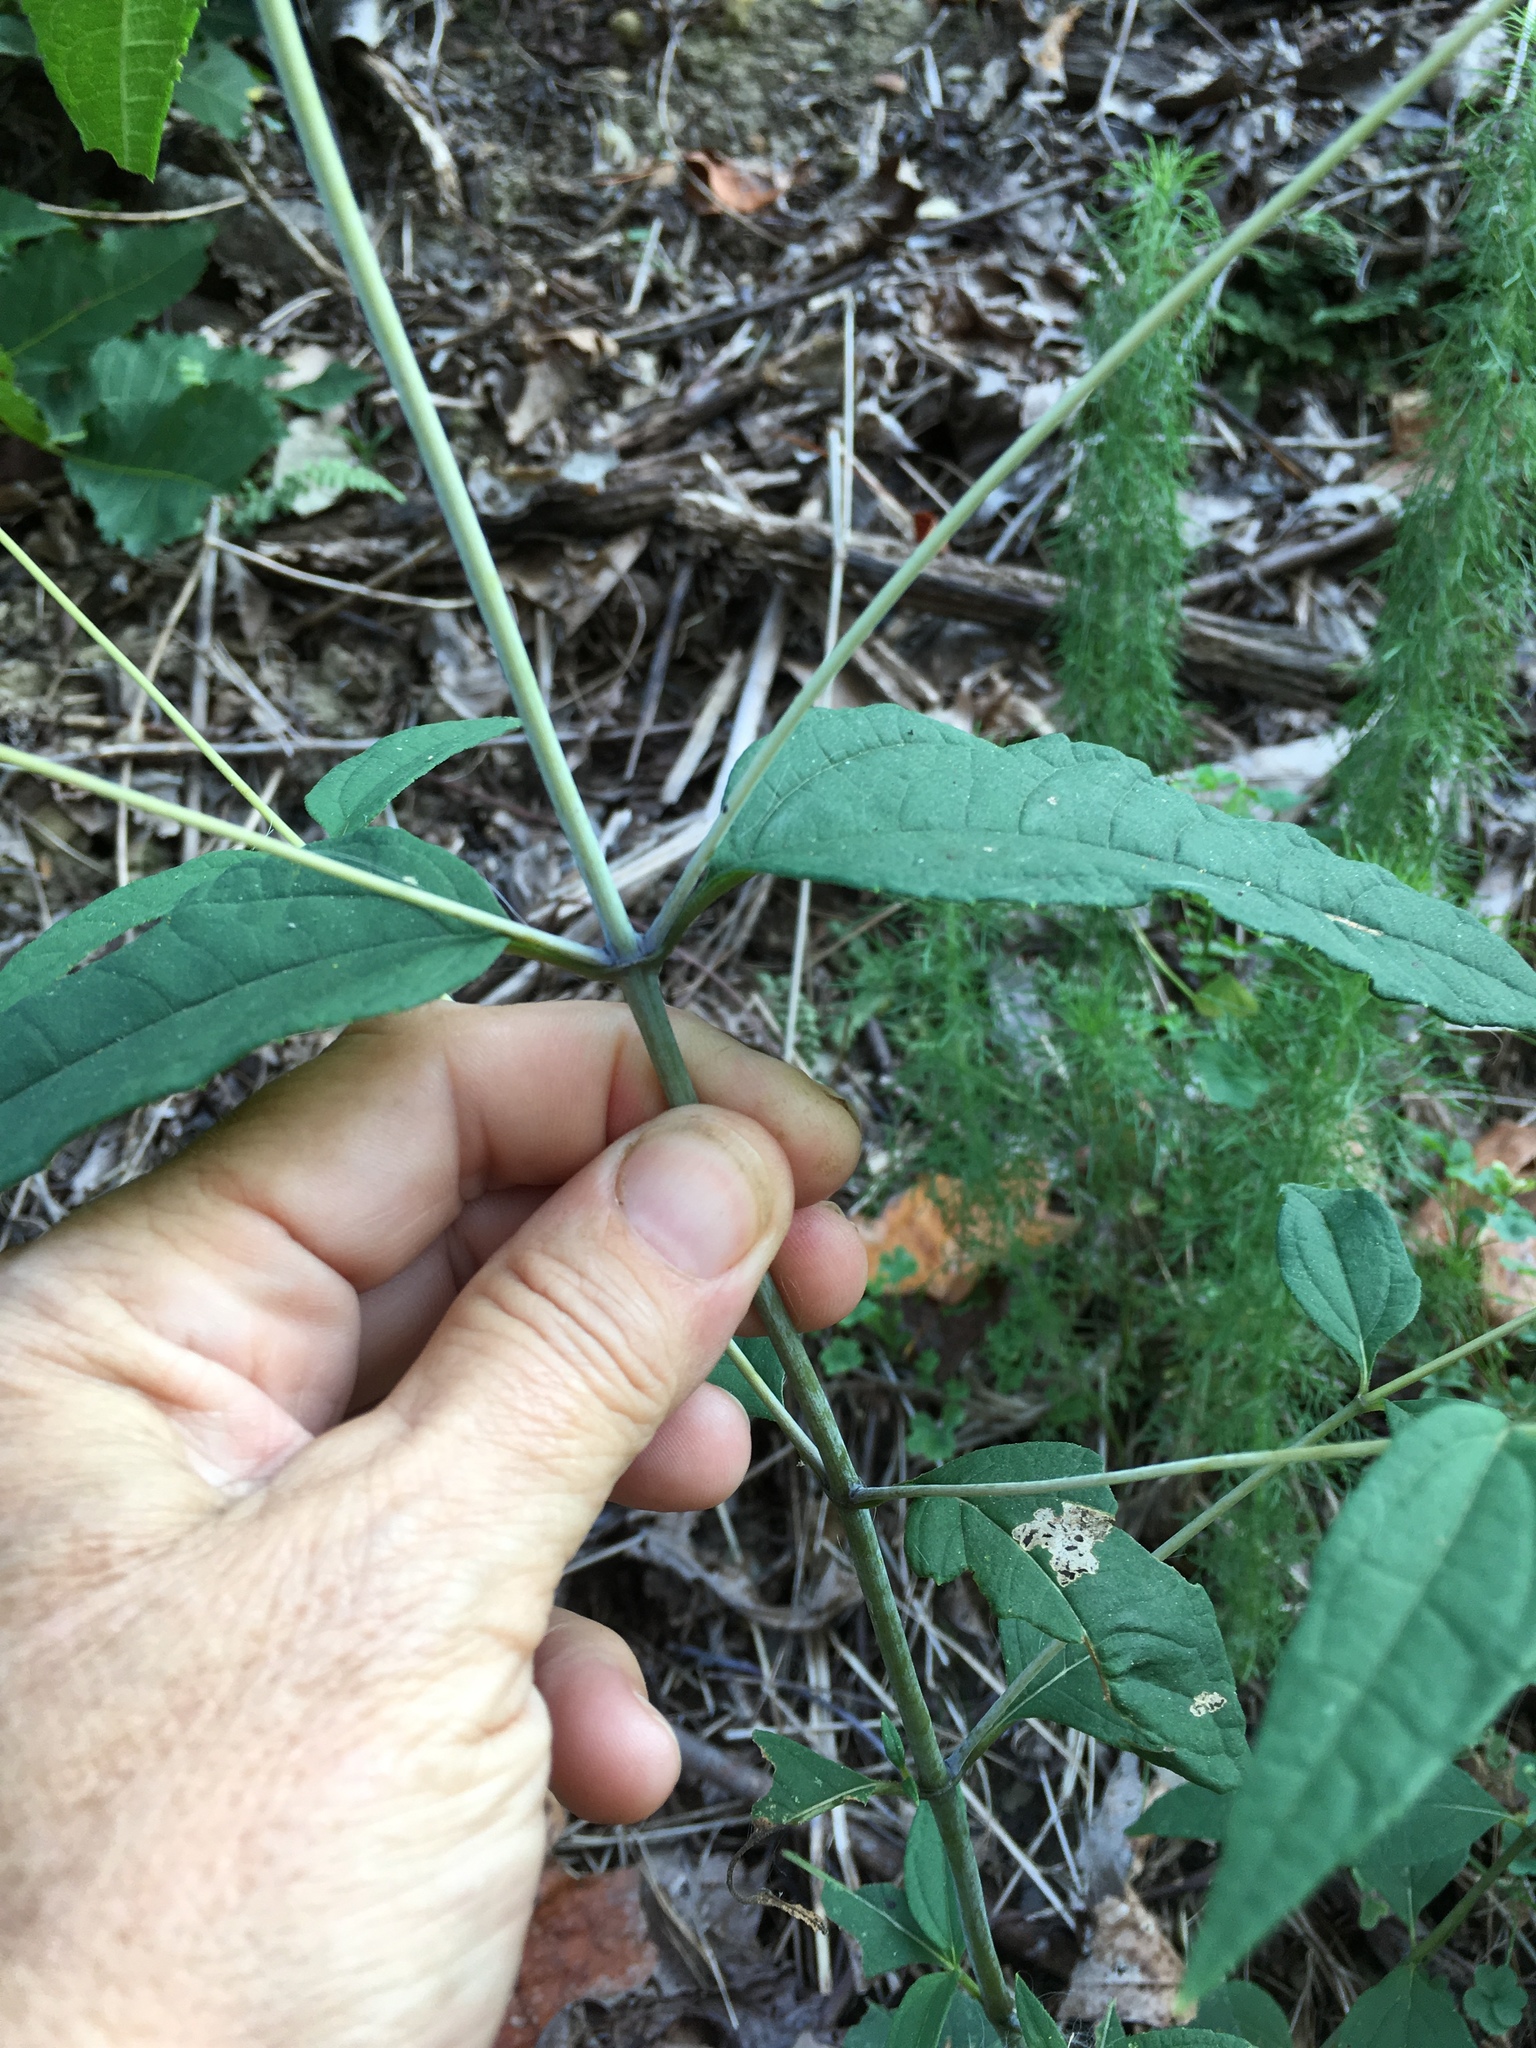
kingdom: Plantae
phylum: Tracheophyta
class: Magnoliopsida
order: Asterales
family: Asteraceae
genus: Helianthus
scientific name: Helianthus microcephalus
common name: Woodland sunflower
